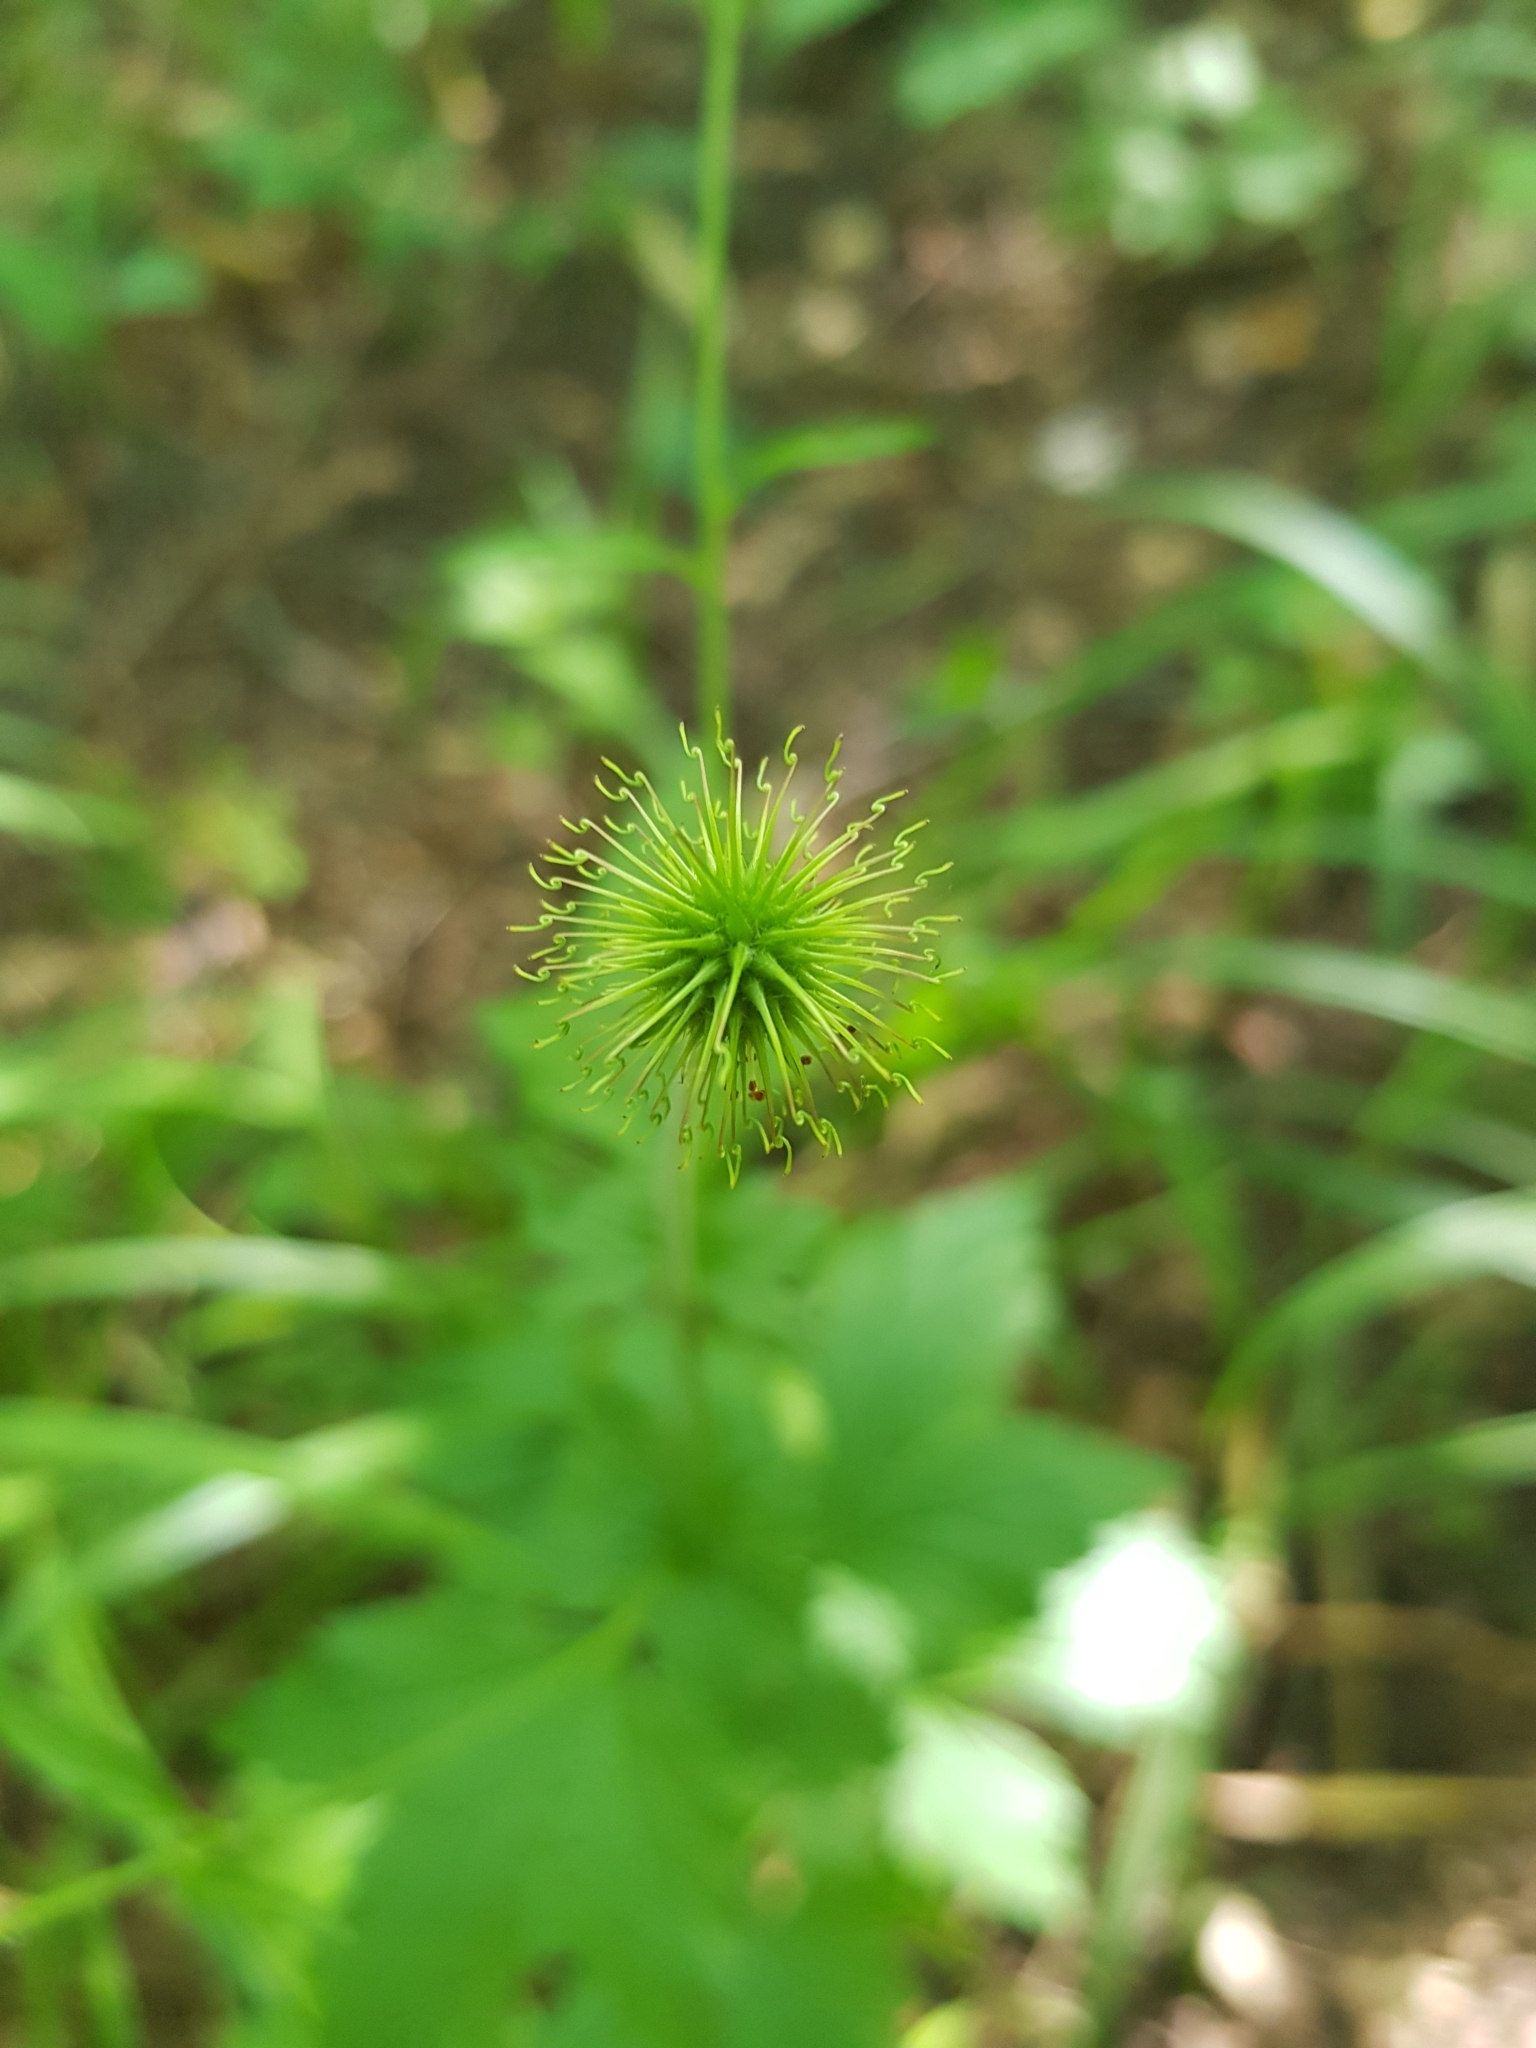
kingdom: Plantae
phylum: Tracheophyta
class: Magnoliopsida
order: Rosales
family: Rosaceae
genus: Geum
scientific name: Geum urbanum
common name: Wood avens
